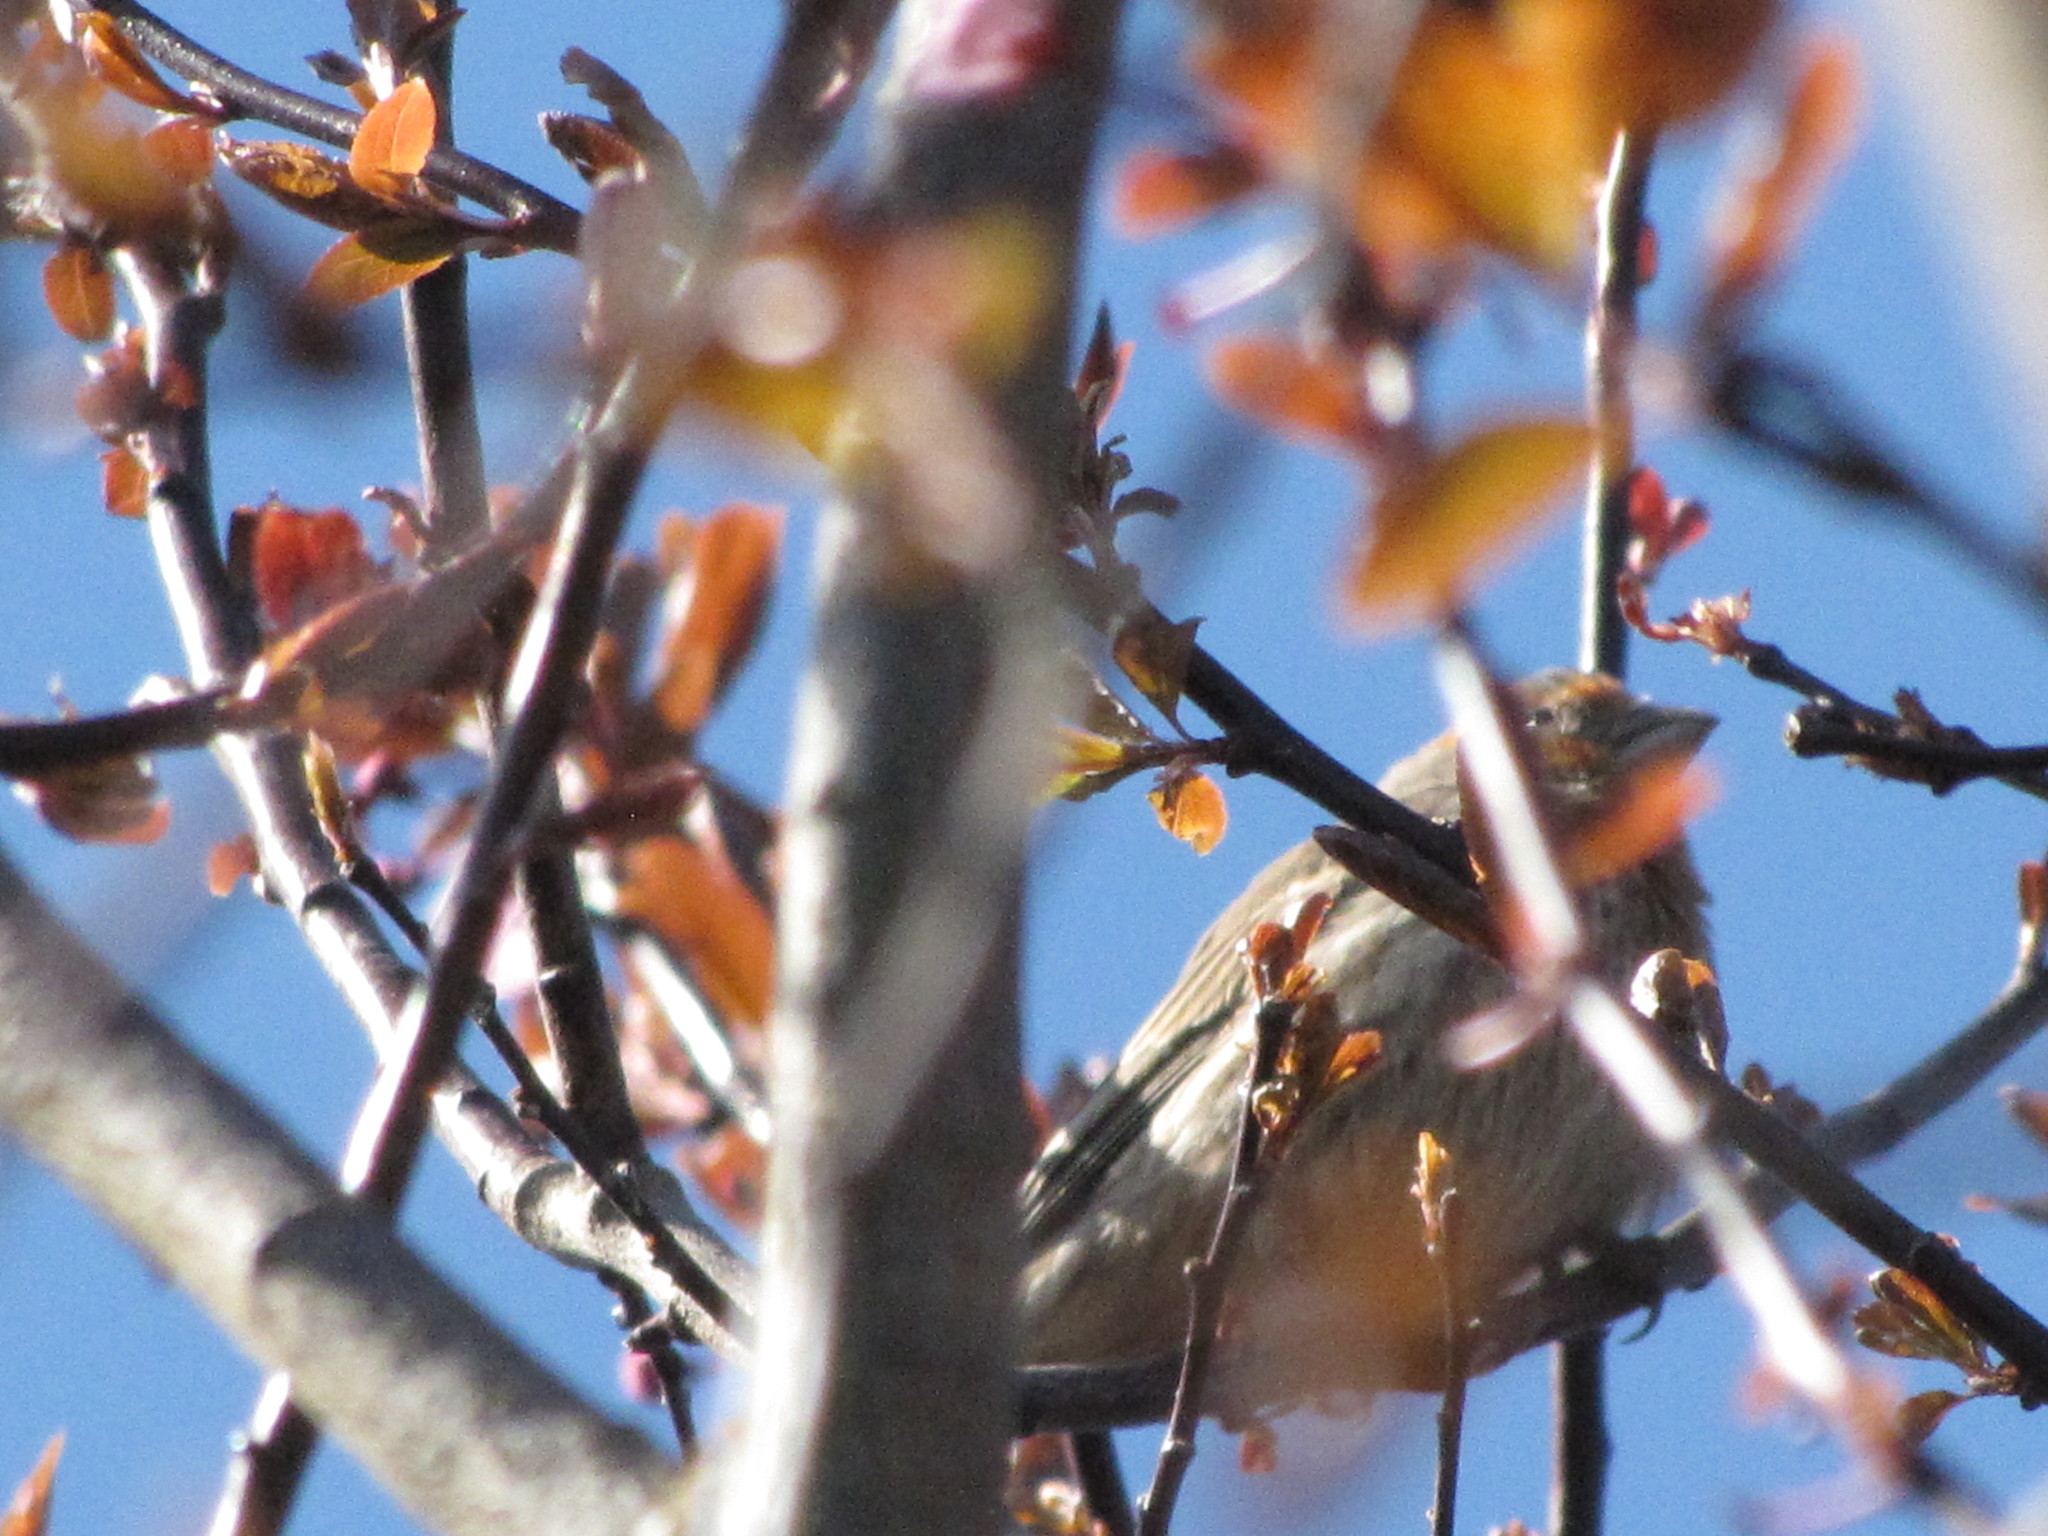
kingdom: Animalia
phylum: Chordata
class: Aves
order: Passeriformes
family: Fringillidae
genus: Haemorhous
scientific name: Haemorhous mexicanus
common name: House finch
